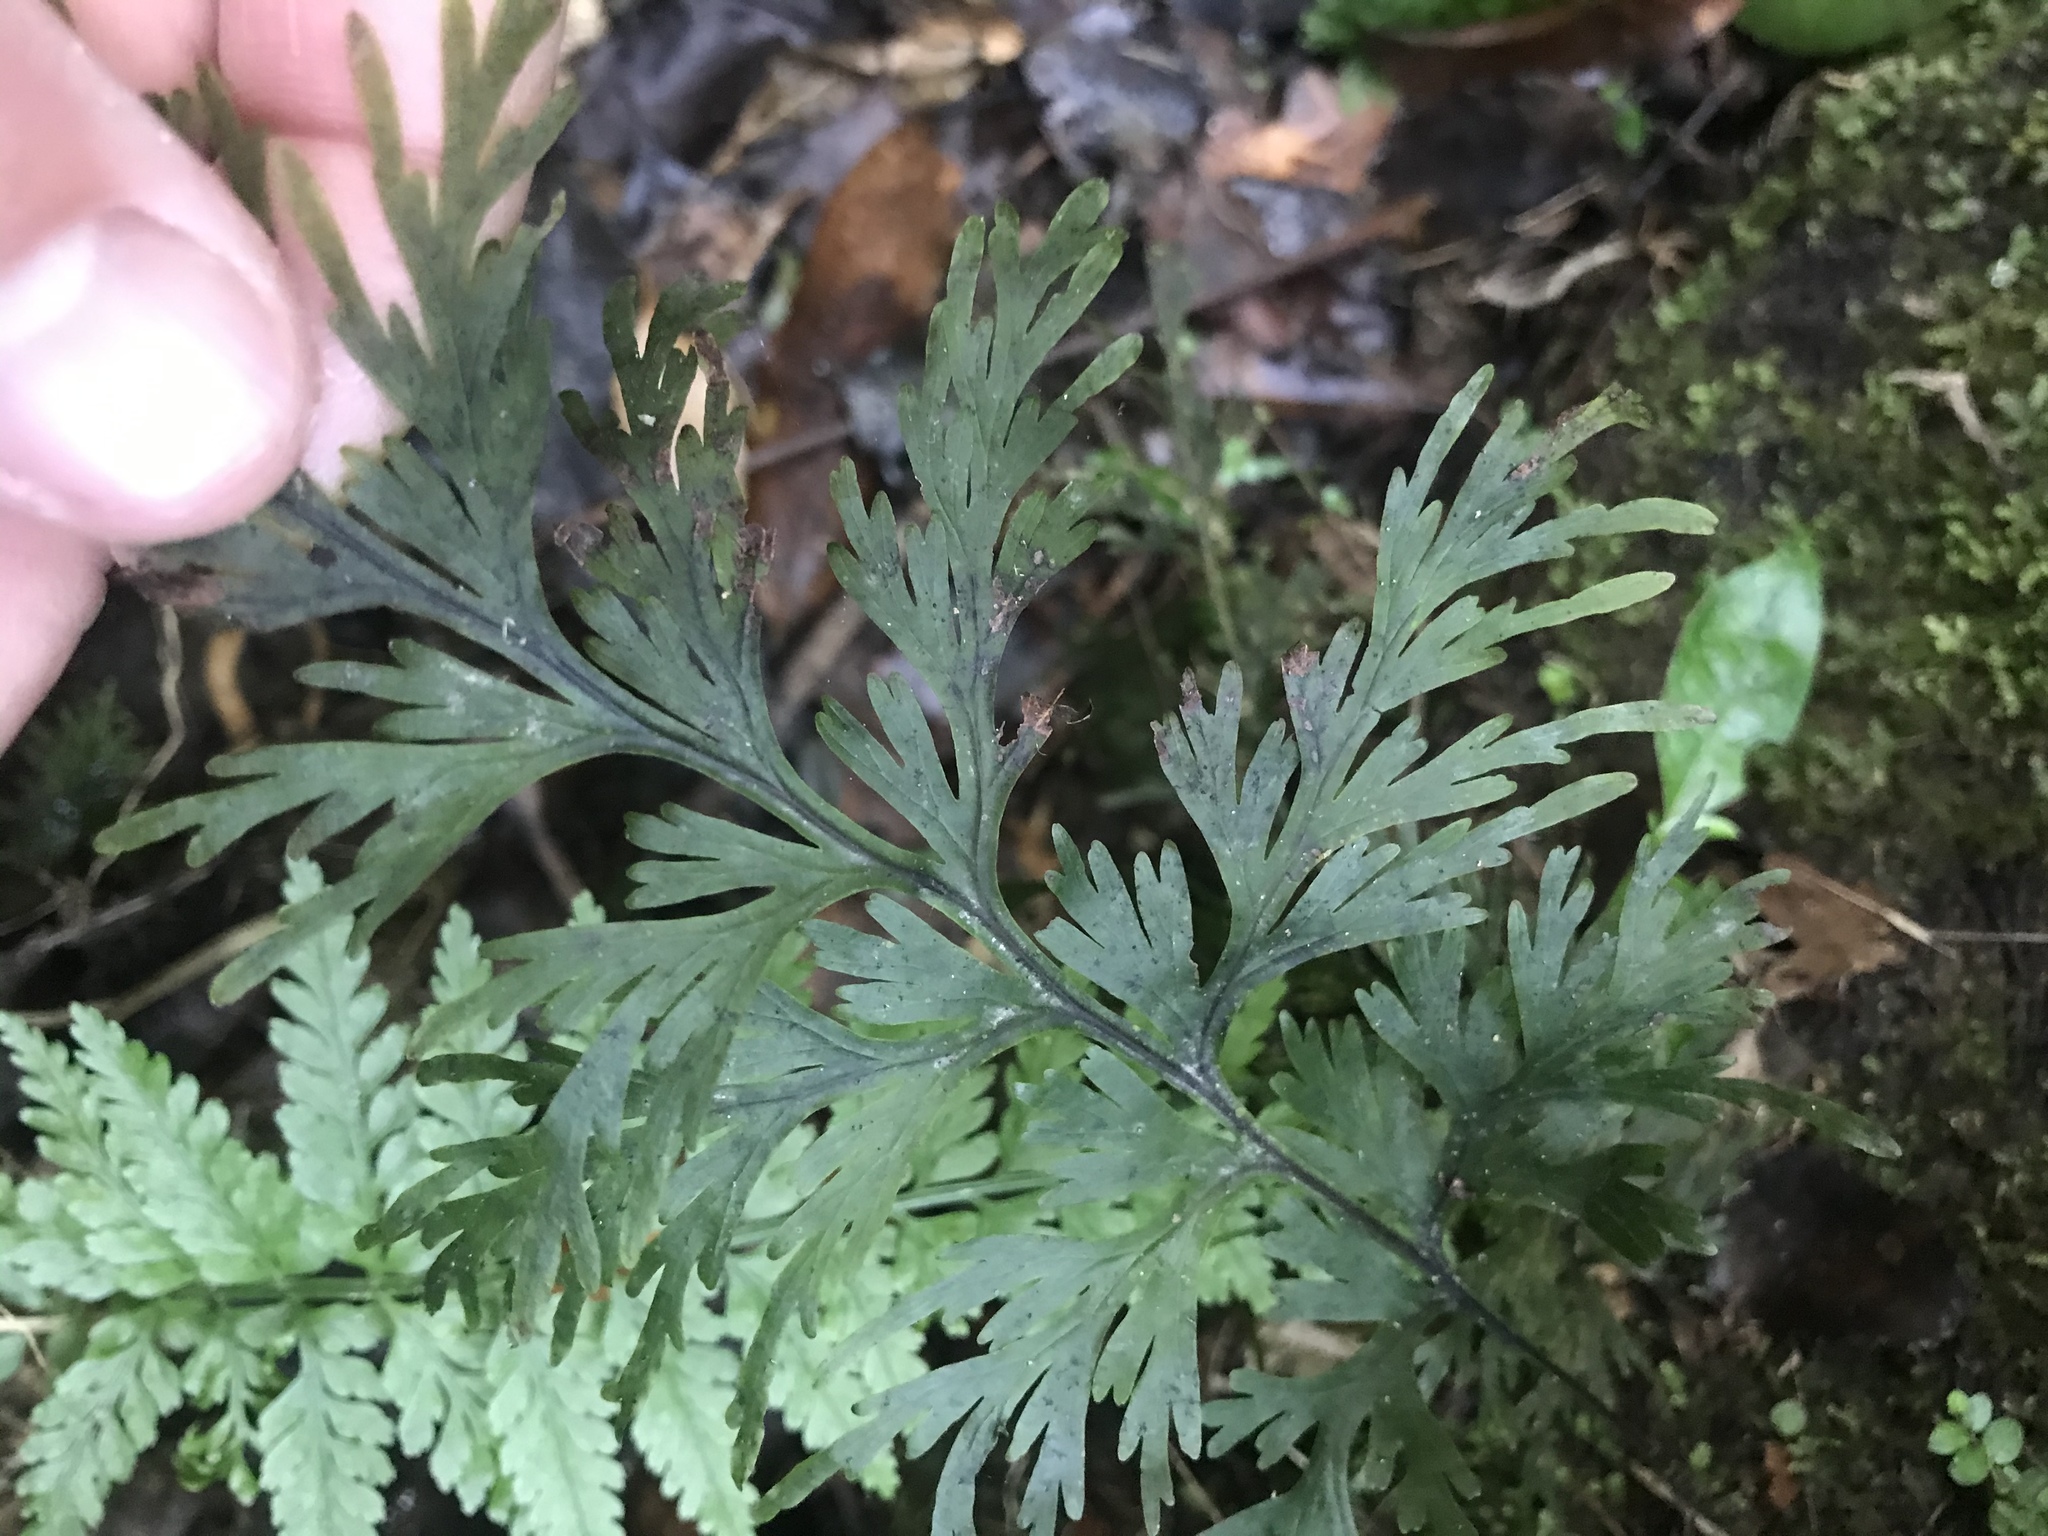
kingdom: Plantae
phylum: Tracheophyta
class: Polypodiopsida
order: Hymenophyllales
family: Hymenophyllaceae
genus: Hymenophyllum
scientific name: Hymenophyllum dilatatum
